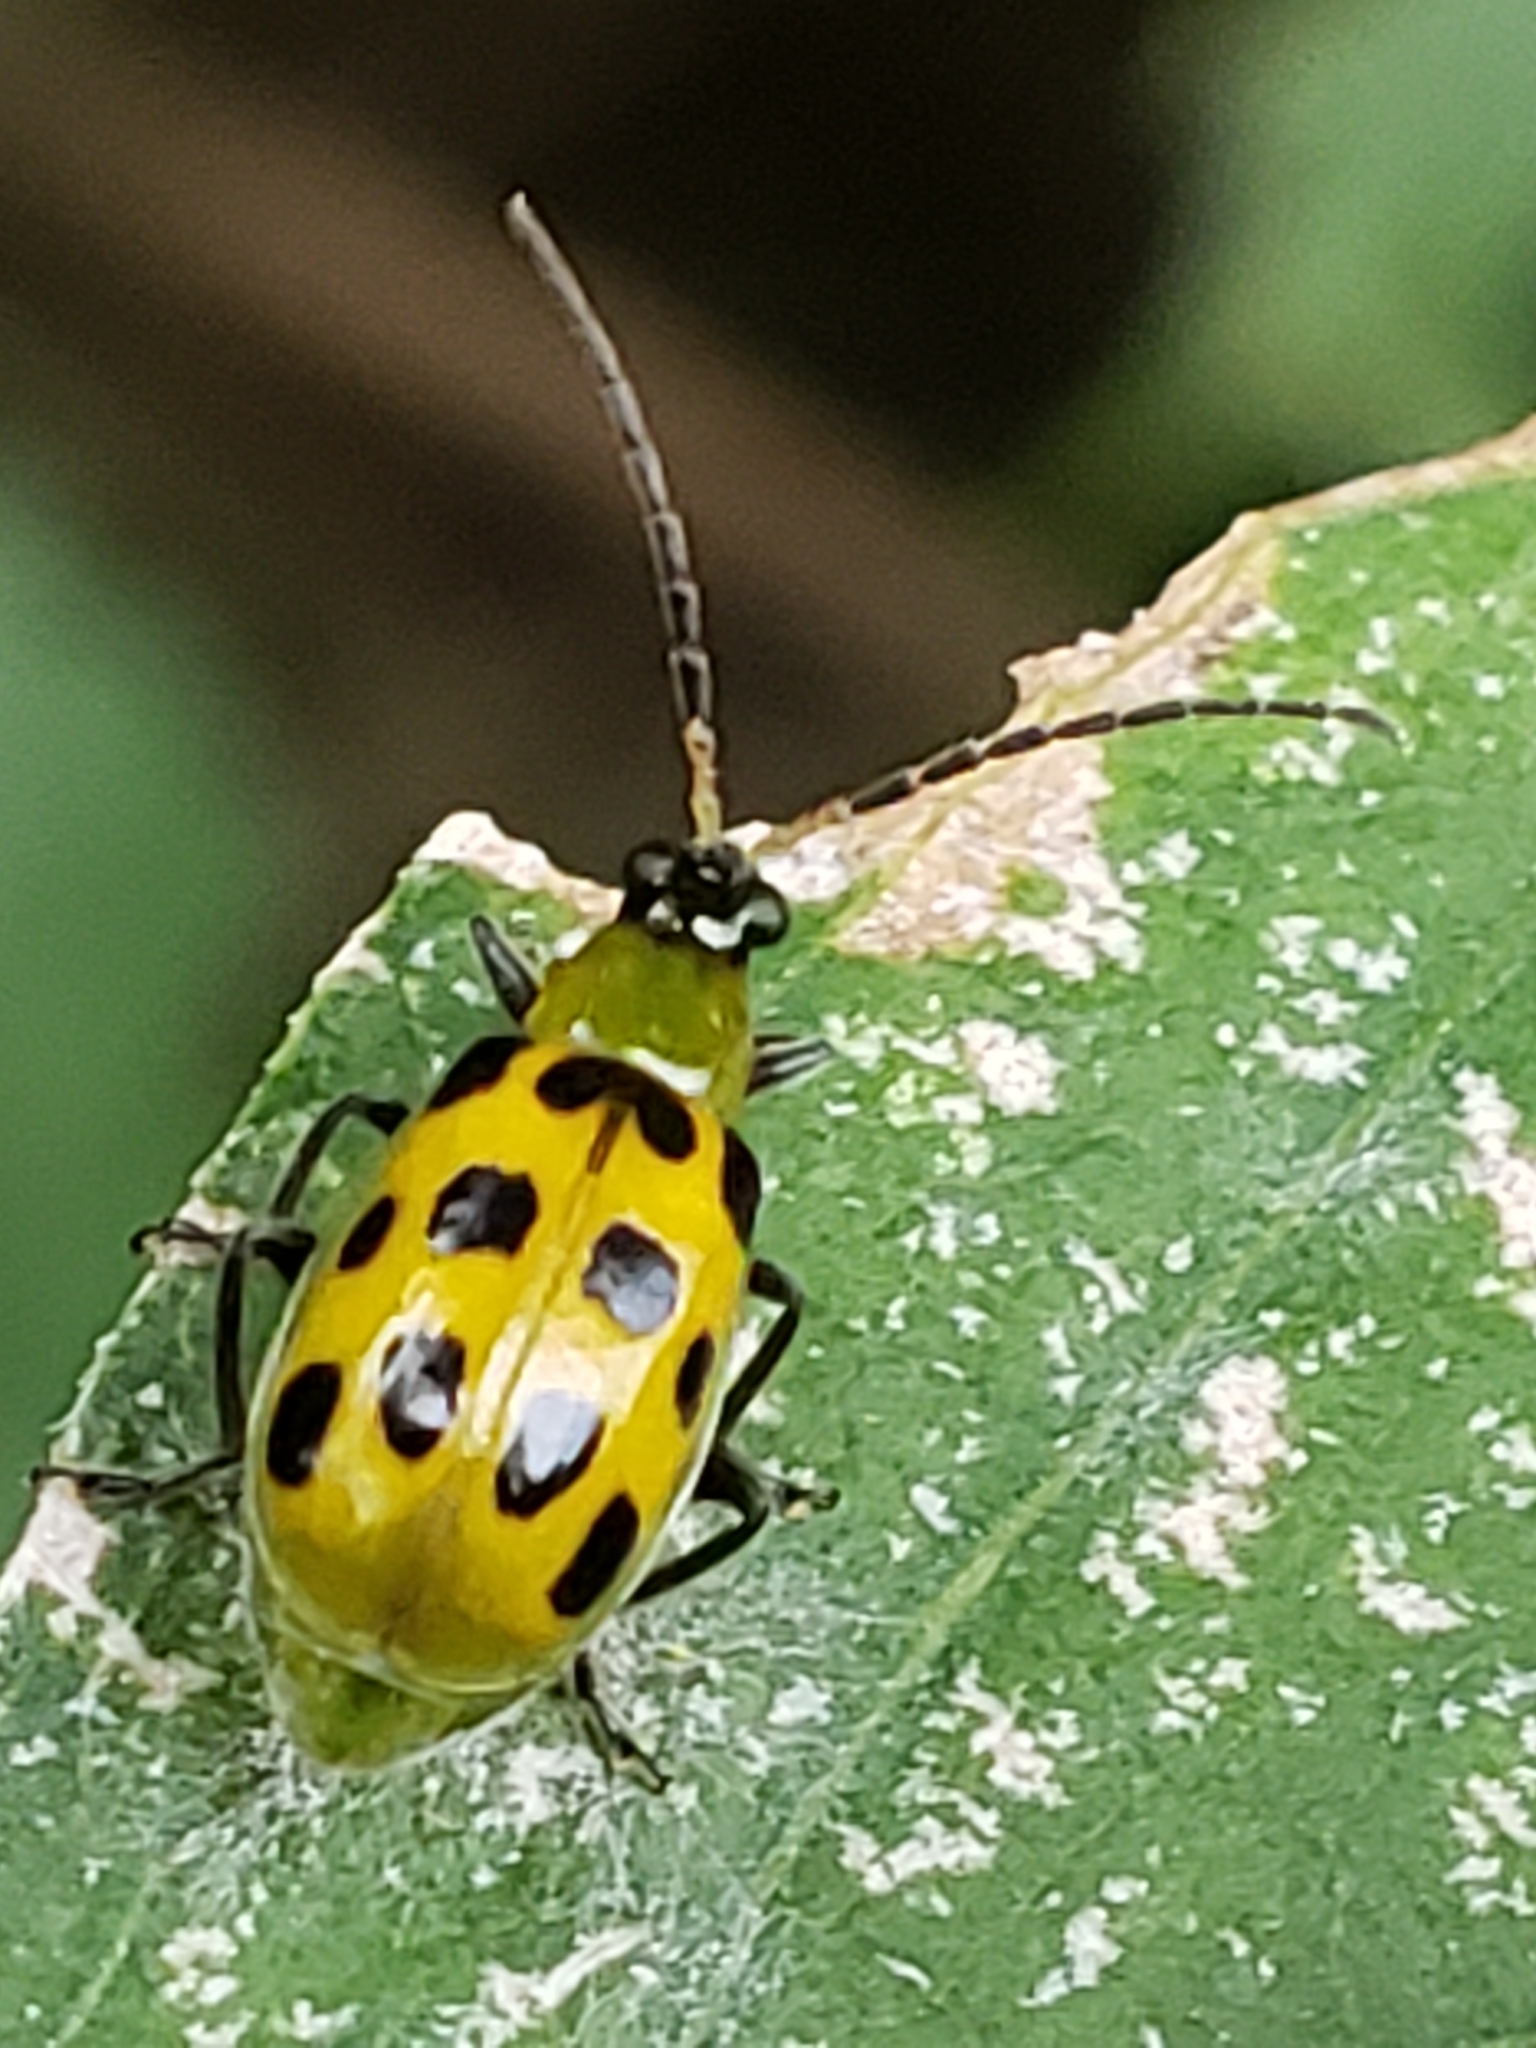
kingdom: Animalia
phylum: Arthropoda
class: Insecta
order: Coleoptera
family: Chrysomelidae
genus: Diabrotica
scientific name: Diabrotica undecimpunctata
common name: Spotted cucumber beetle
